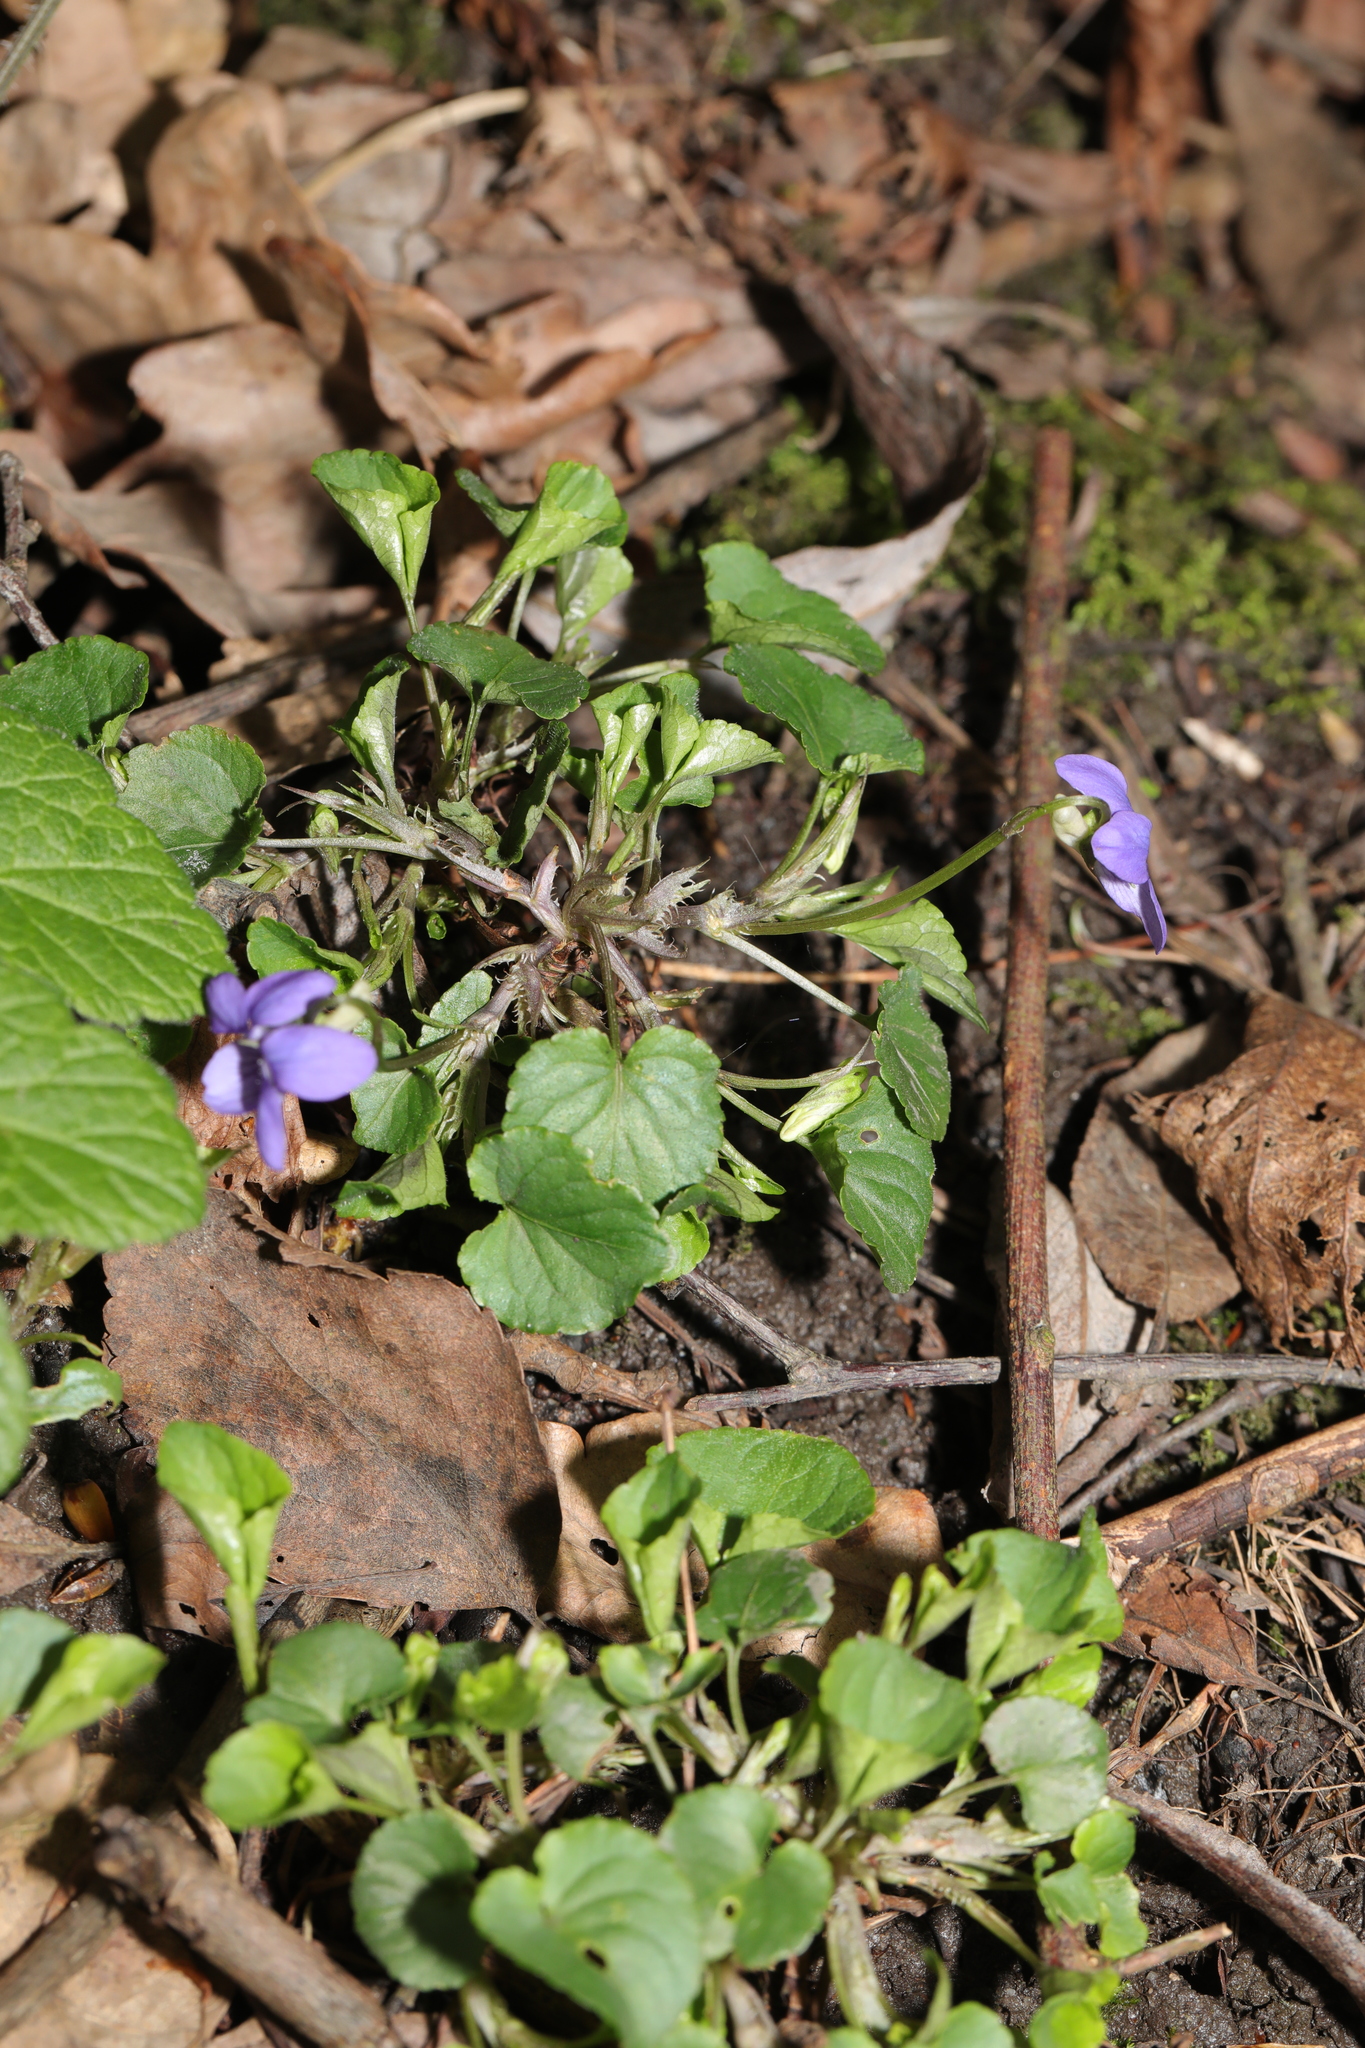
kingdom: Plantae
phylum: Tracheophyta
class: Magnoliopsida
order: Malpighiales
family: Violaceae
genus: Viola
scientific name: Viola riviniana
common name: Common dog-violet
